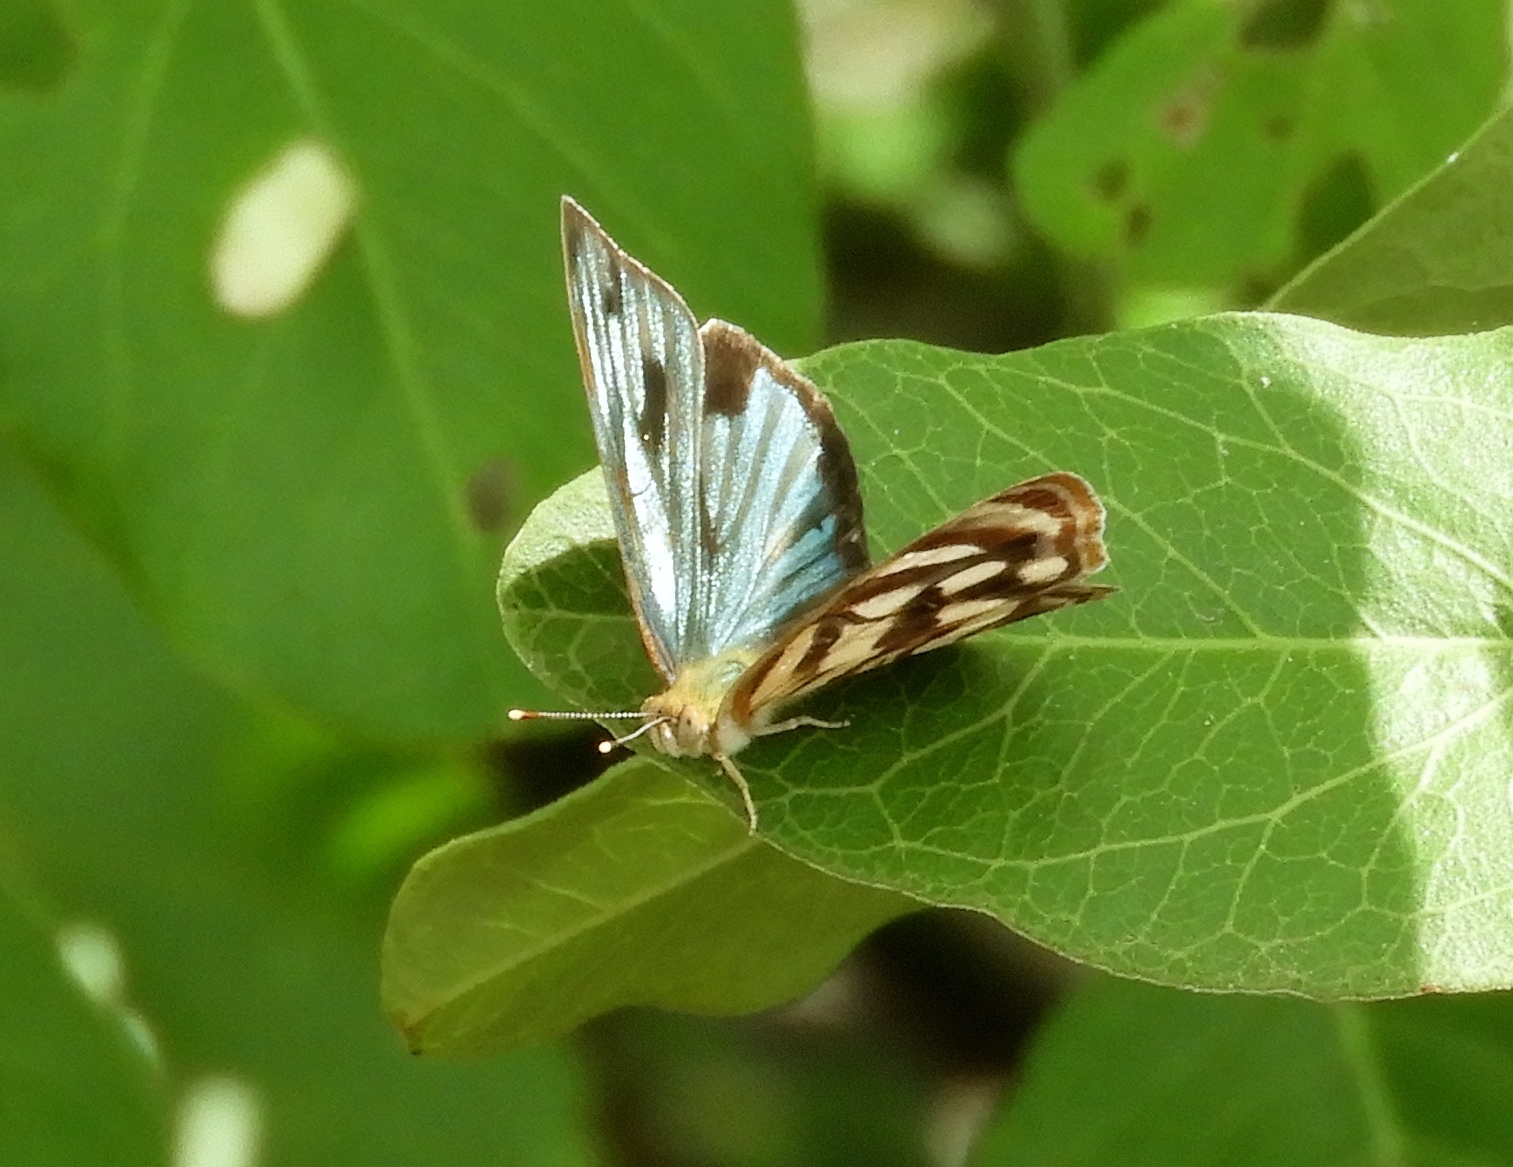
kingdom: Animalia
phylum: Arthropoda
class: Insecta
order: Lepidoptera
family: Nymphalidae
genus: Dynamine
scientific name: Dynamine mylitta
